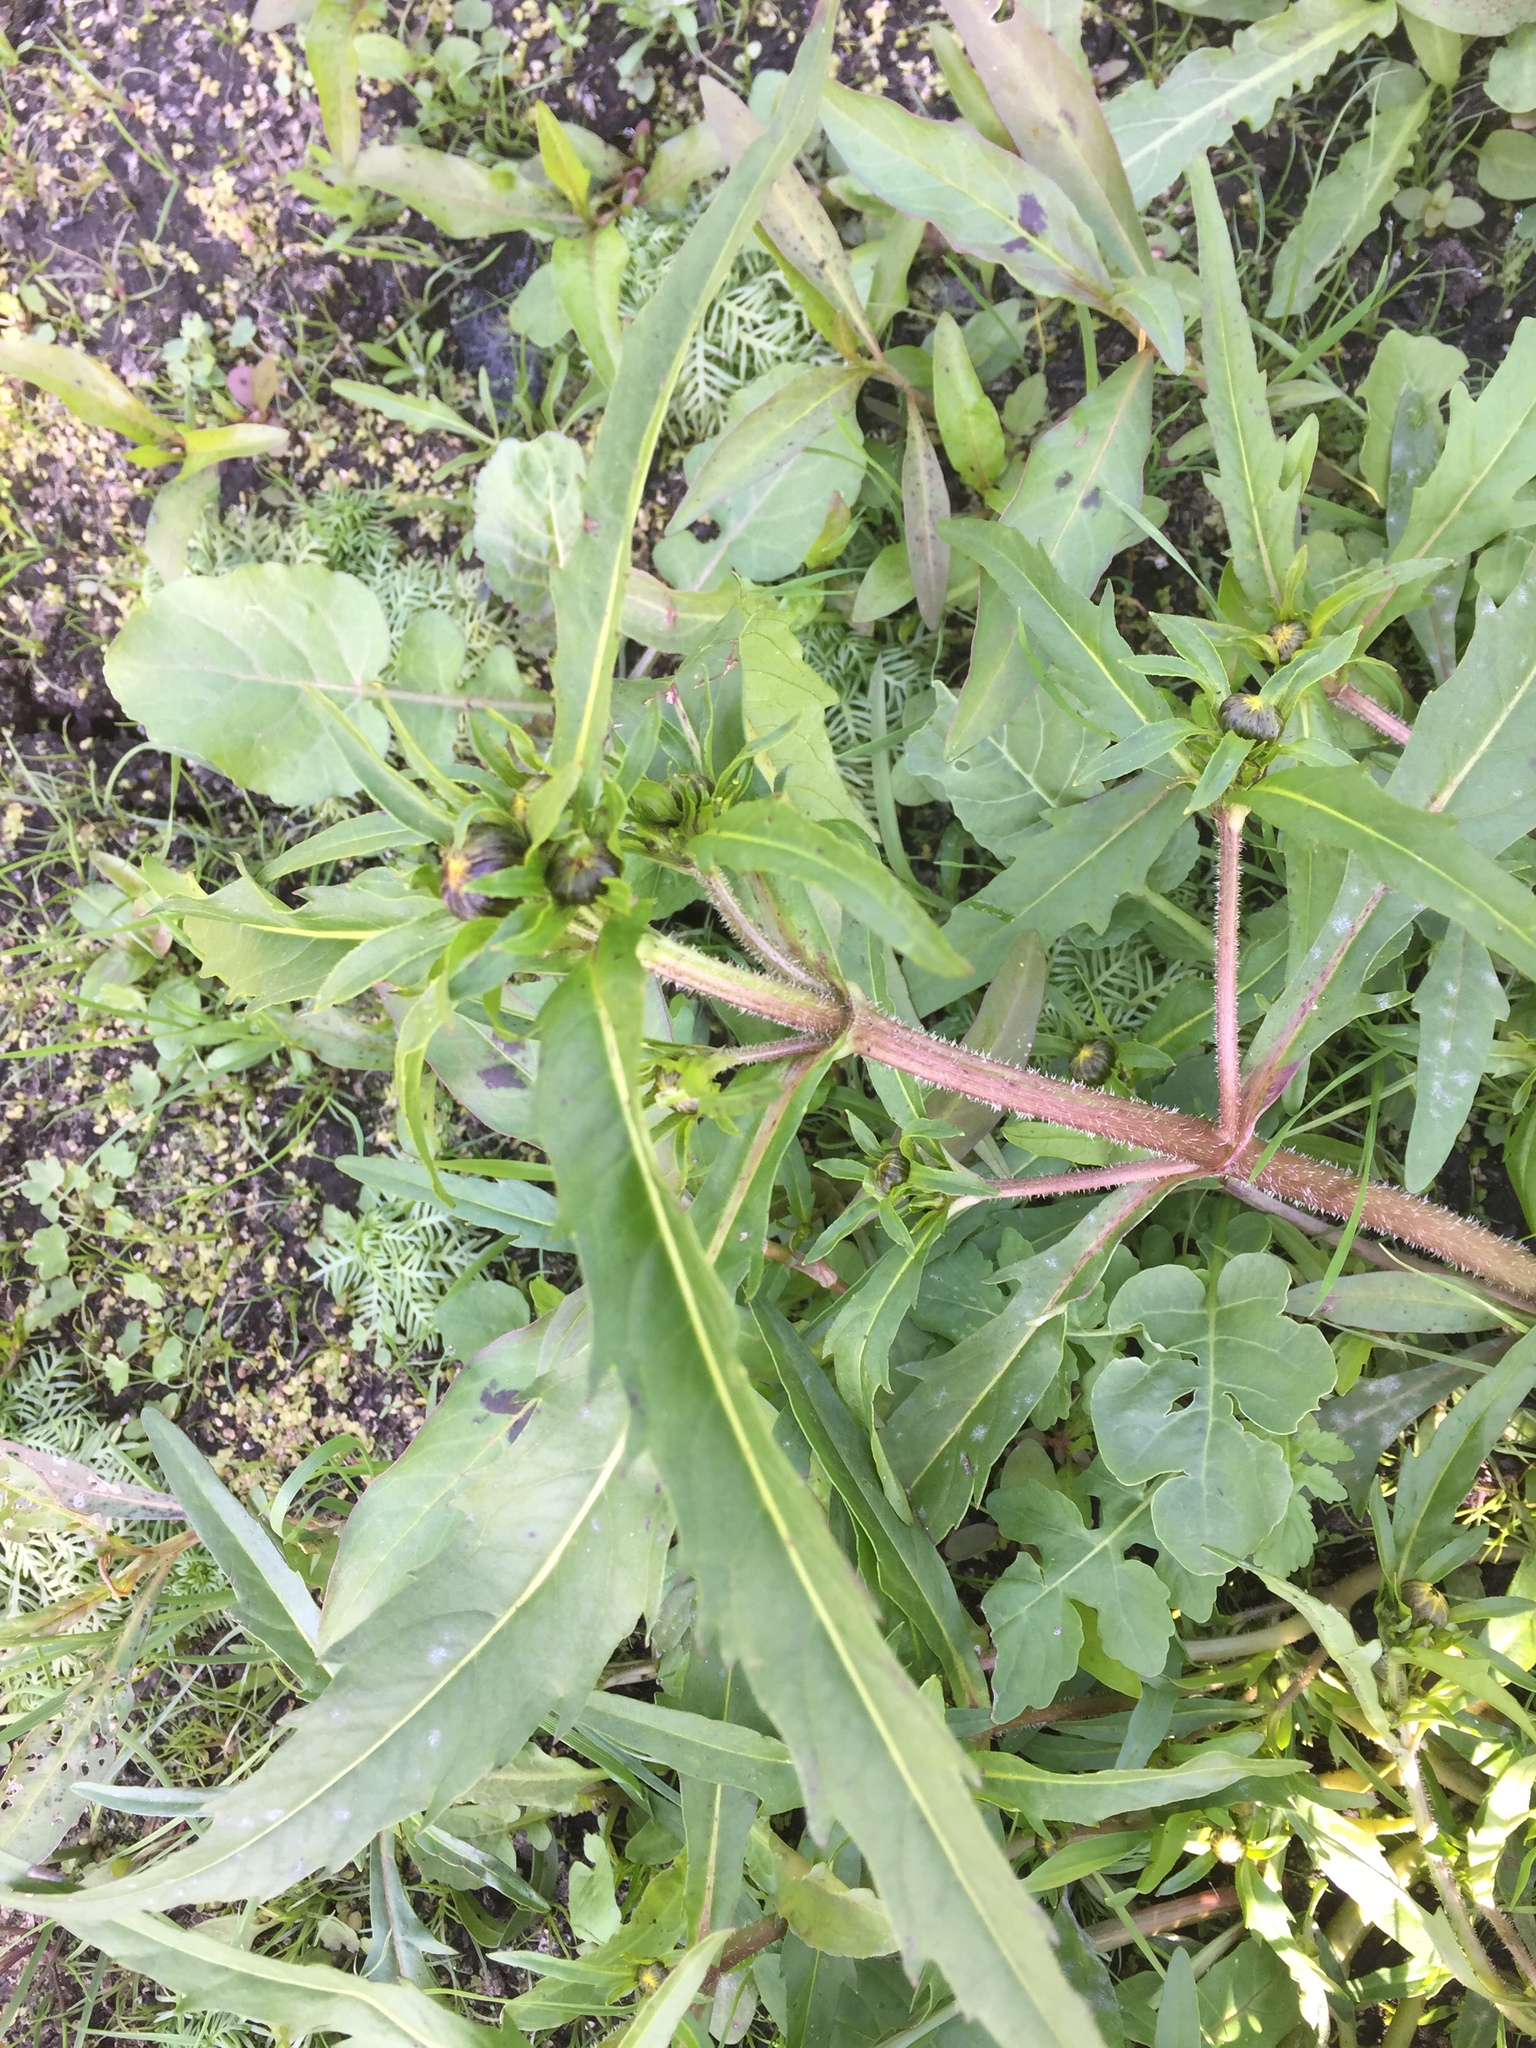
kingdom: Plantae
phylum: Tracheophyta
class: Magnoliopsida
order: Asterales
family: Asteraceae
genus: Bidens
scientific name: Bidens cernua
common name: Nodding bur-marigold
